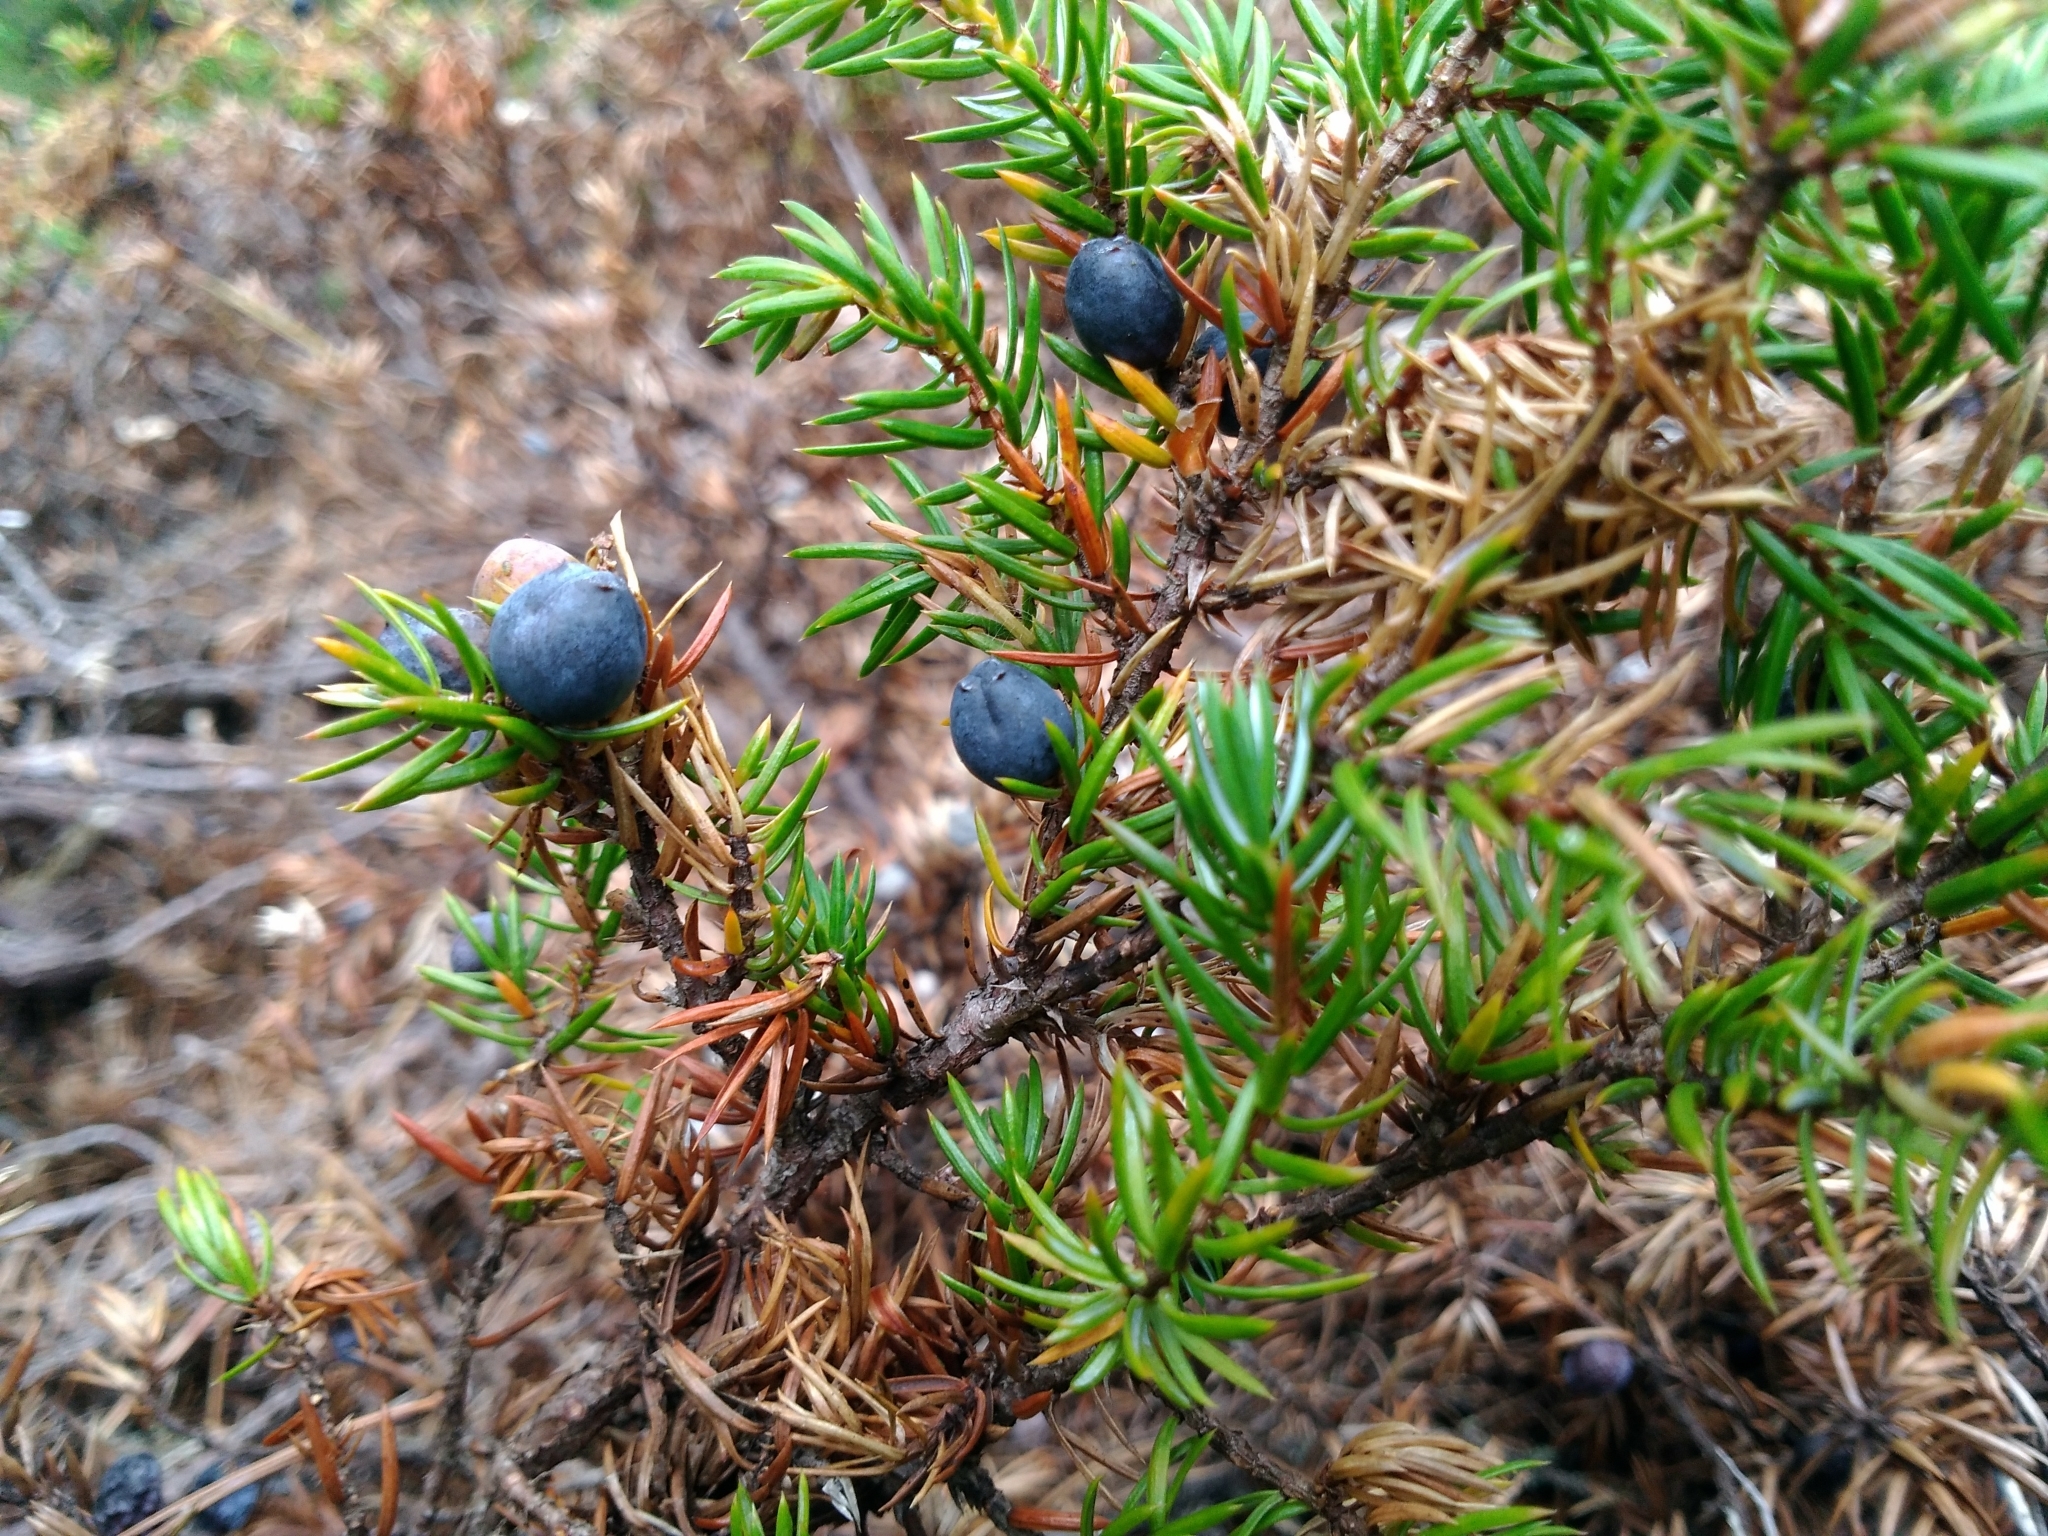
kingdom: Plantae
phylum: Tracheophyta
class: Pinopsida
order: Pinales
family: Cupressaceae
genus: Juniperus
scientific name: Juniperus communis
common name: Common juniper
